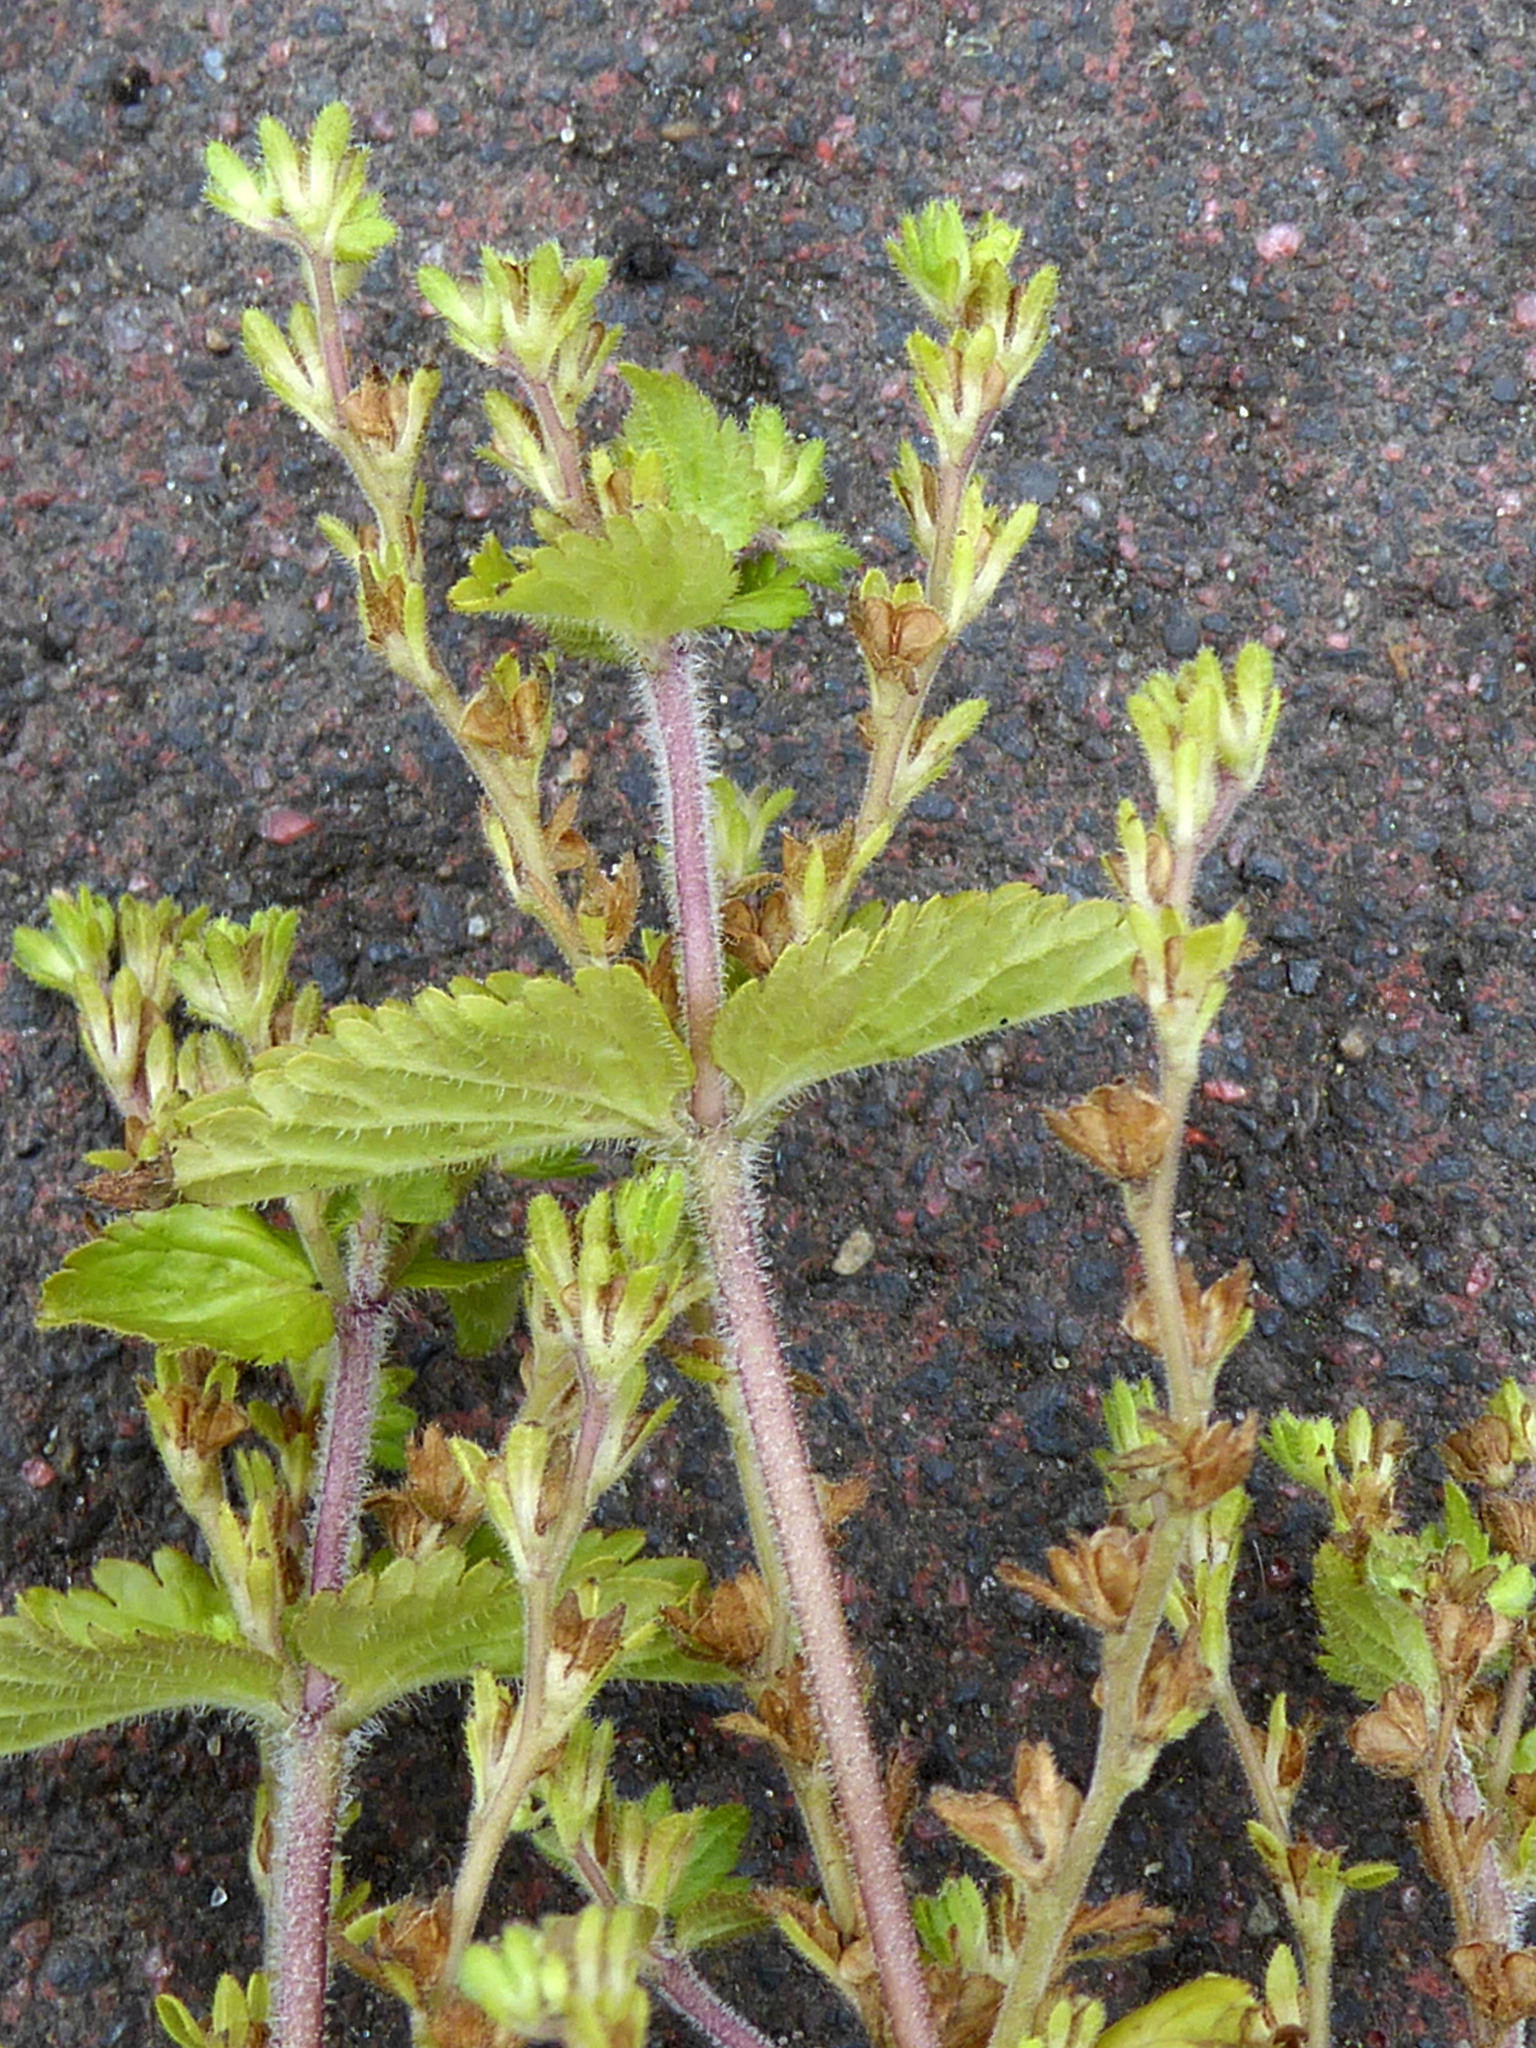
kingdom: Plantae
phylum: Tracheophyta
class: Magnoliopsida
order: Lamiales
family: Plantaginaceae
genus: Veronica
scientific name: Veronica javanica
